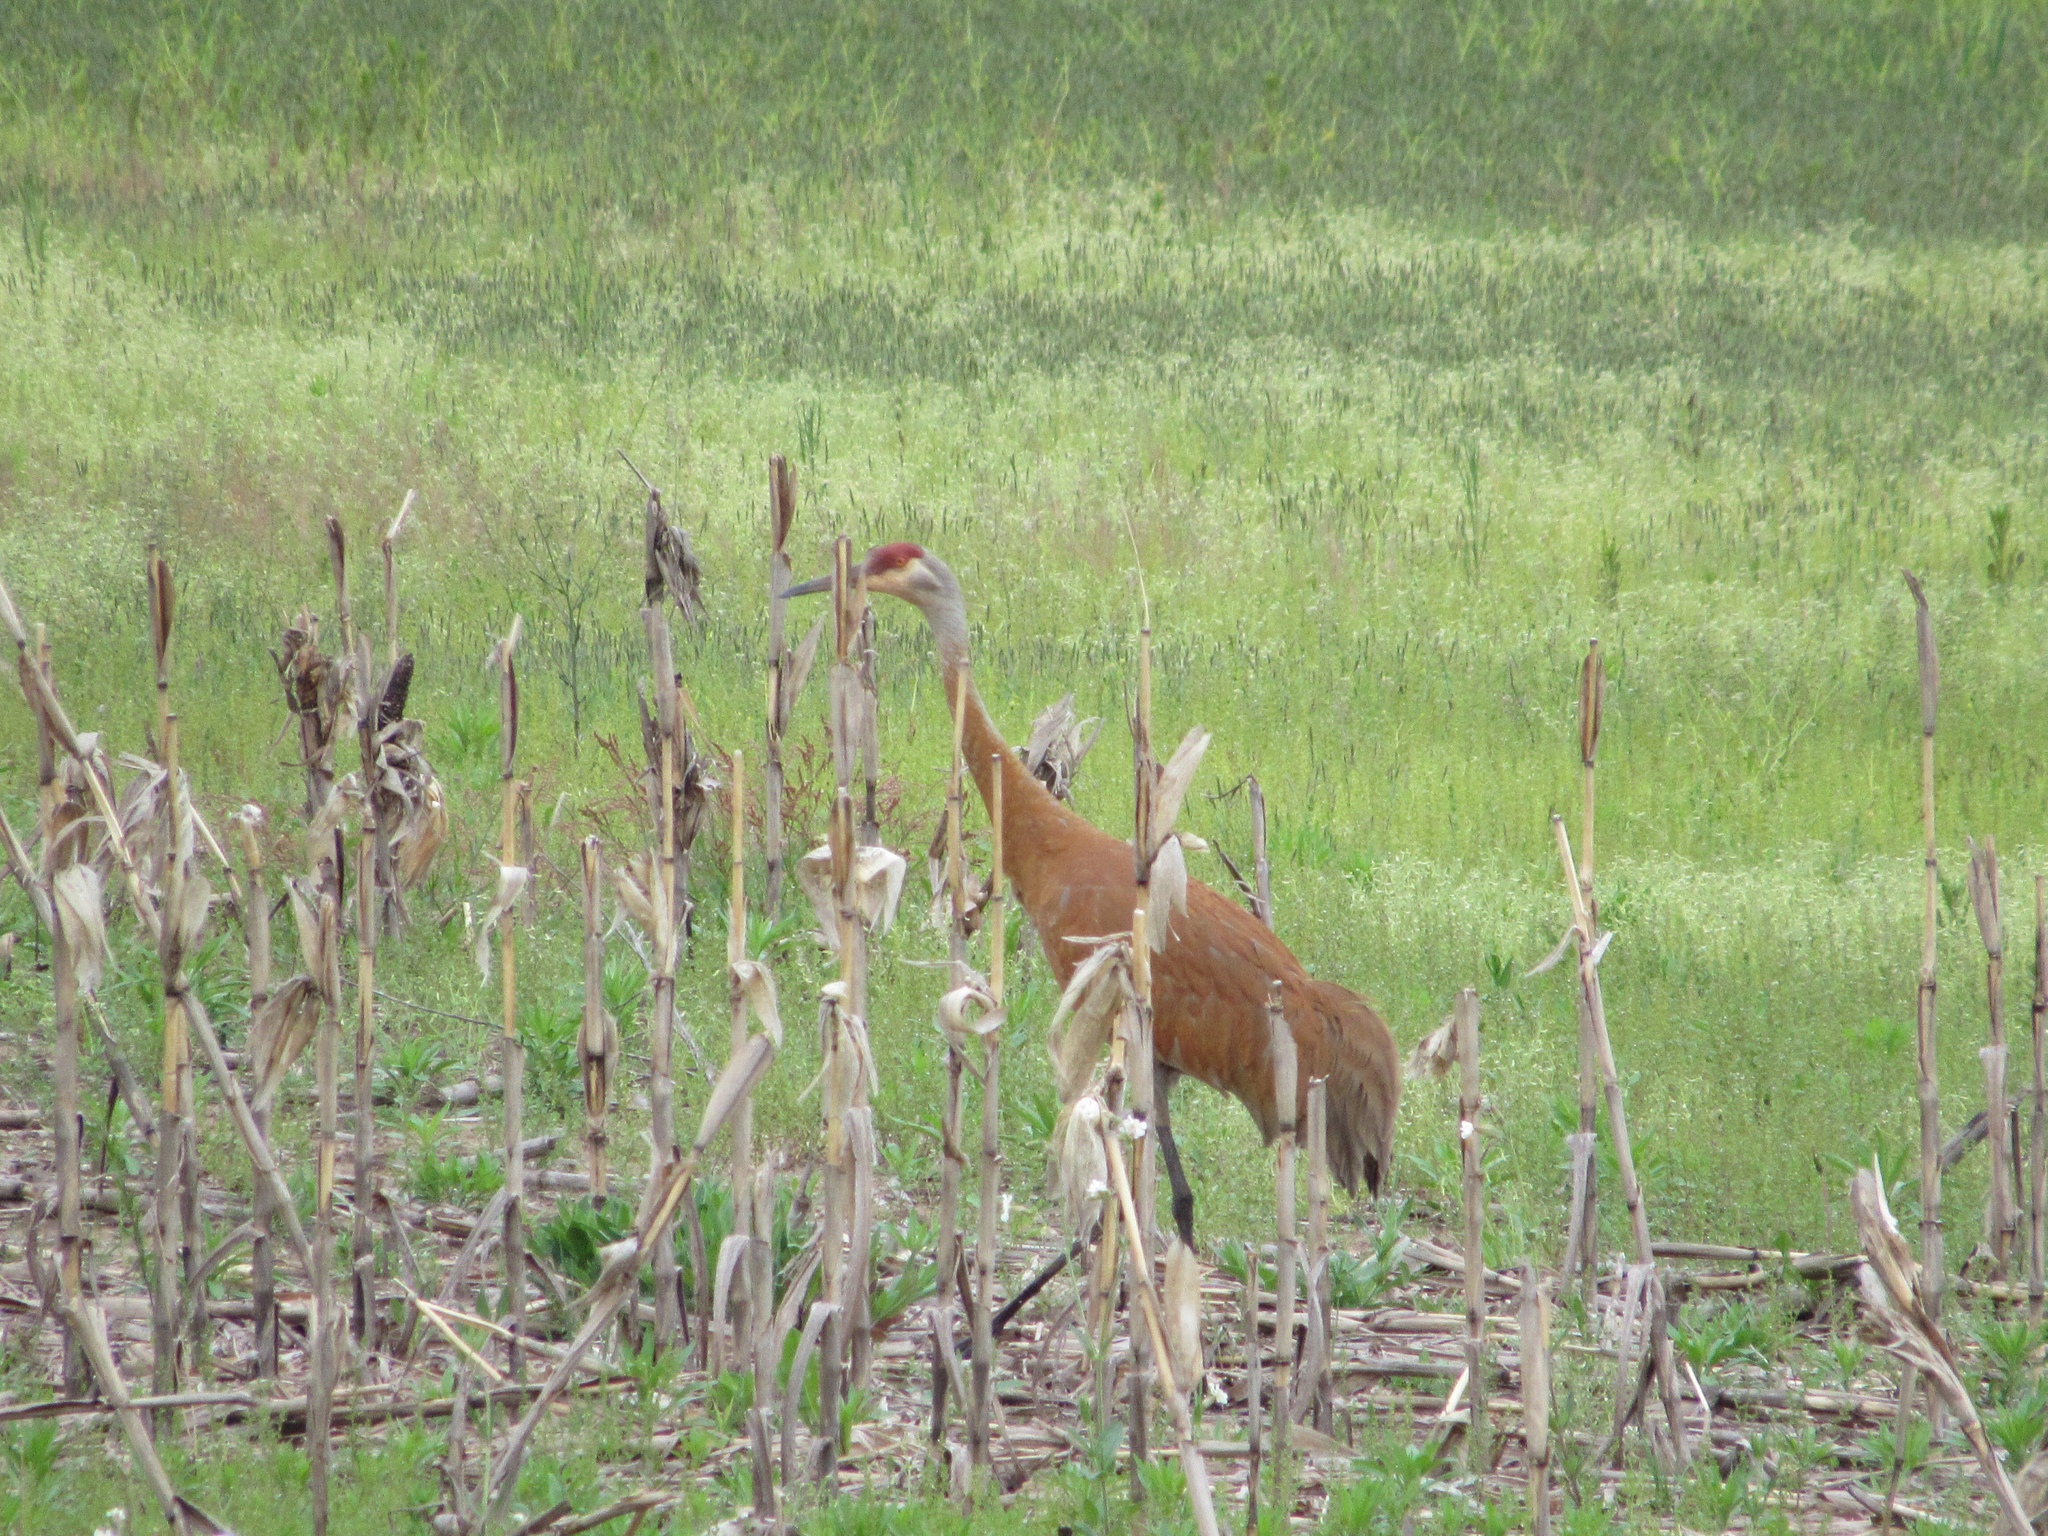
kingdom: Animalia
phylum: Chordata
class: Aves
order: Gruiformes
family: Gruidae
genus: Grus
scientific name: Grus canadensis
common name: Sandhill crane
